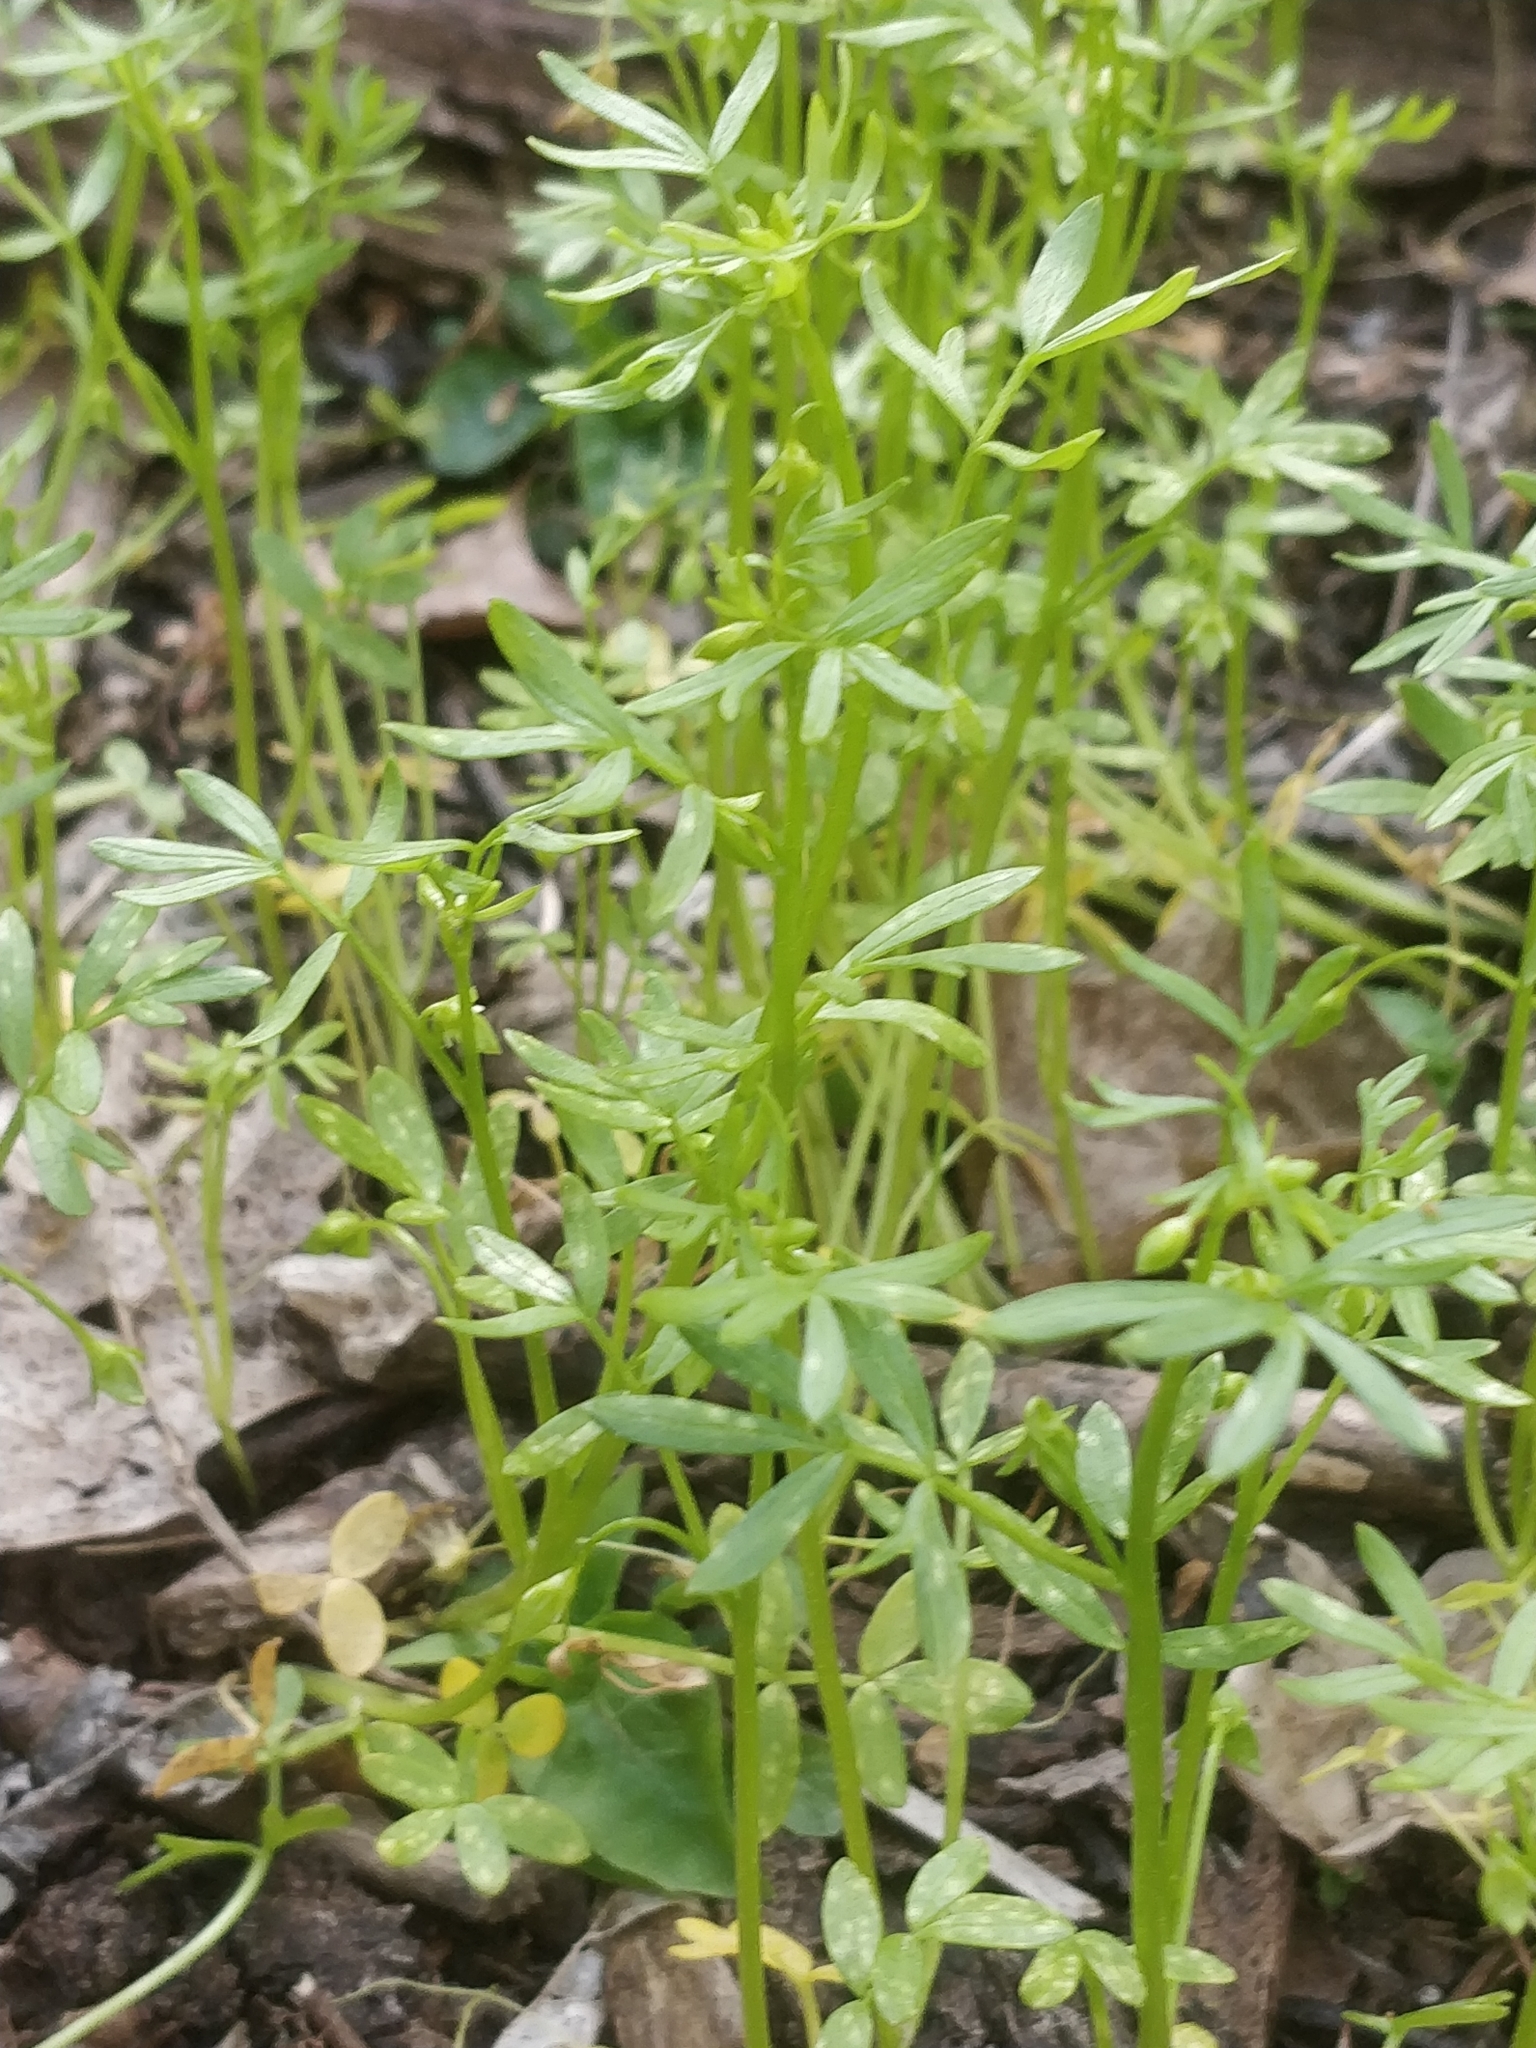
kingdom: Plantae
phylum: Tracheophyta
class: Magnoliopsida
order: Brassicales
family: Limnanthaceae
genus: Floerkea
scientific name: Floerkea proserpinacoides
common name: False mermaid
